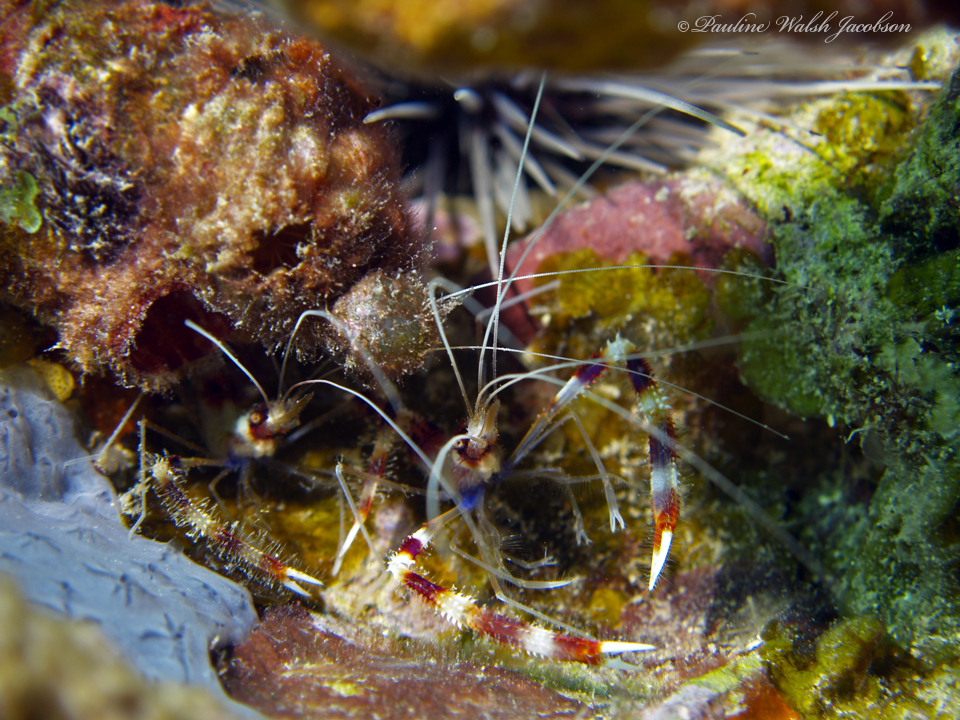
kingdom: Animalia
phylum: Arthropoda
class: Malacostraca
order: Decapoda
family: Stenopodidae
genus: Stenopus
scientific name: Stenopus hispidus
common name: Banded coral shrimp
